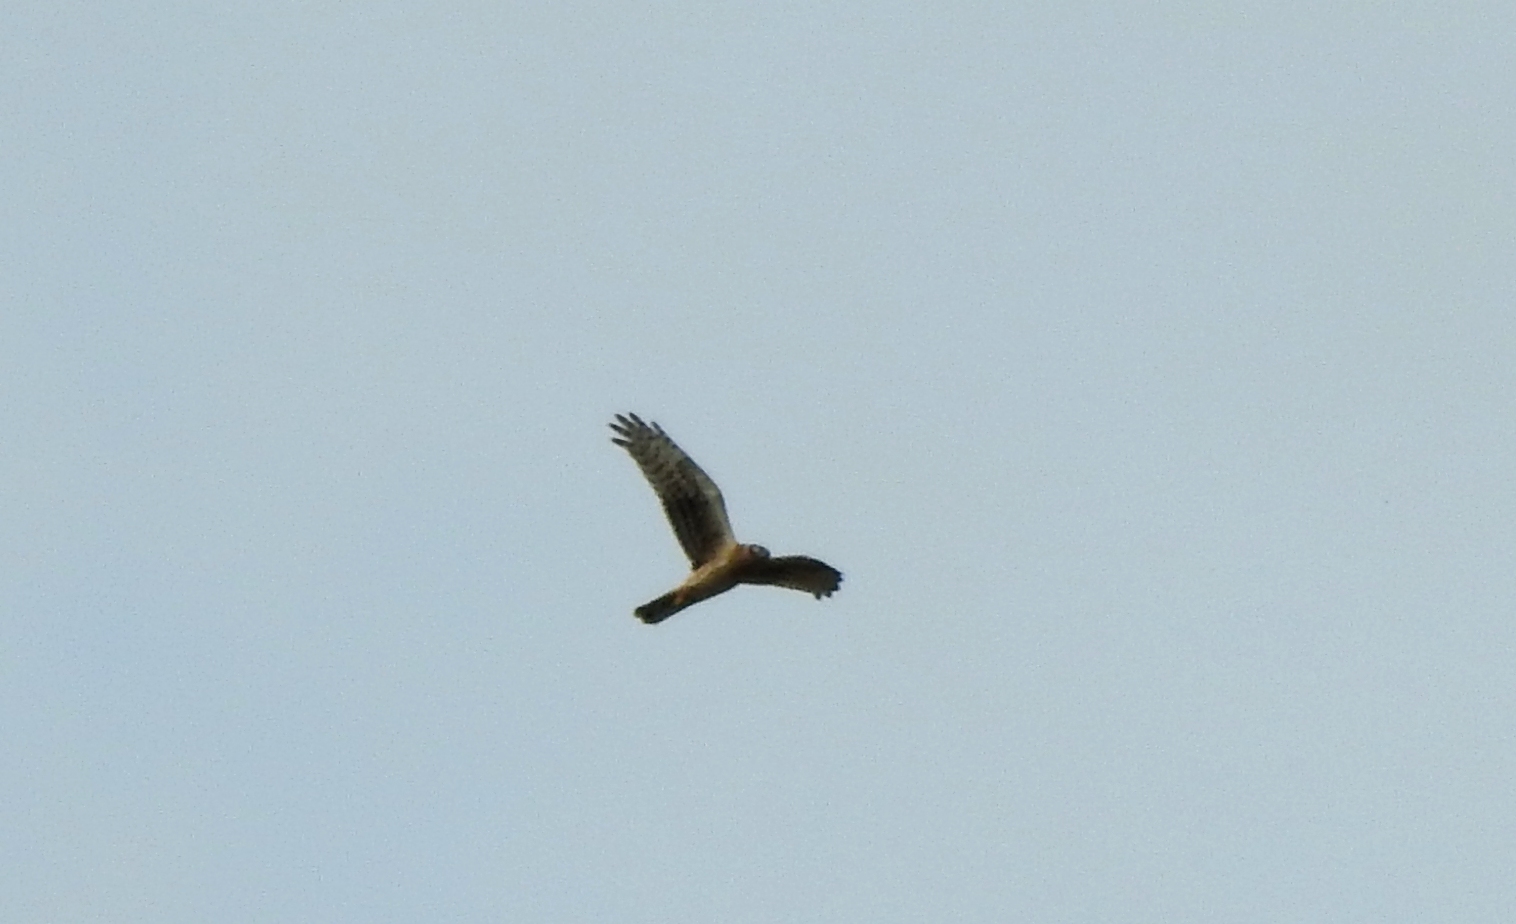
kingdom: Animalia
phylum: Chordata
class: Aves
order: Accipitriformes
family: Accipitridae
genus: Circus
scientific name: Circus melanoleucos
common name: Pied harrier
